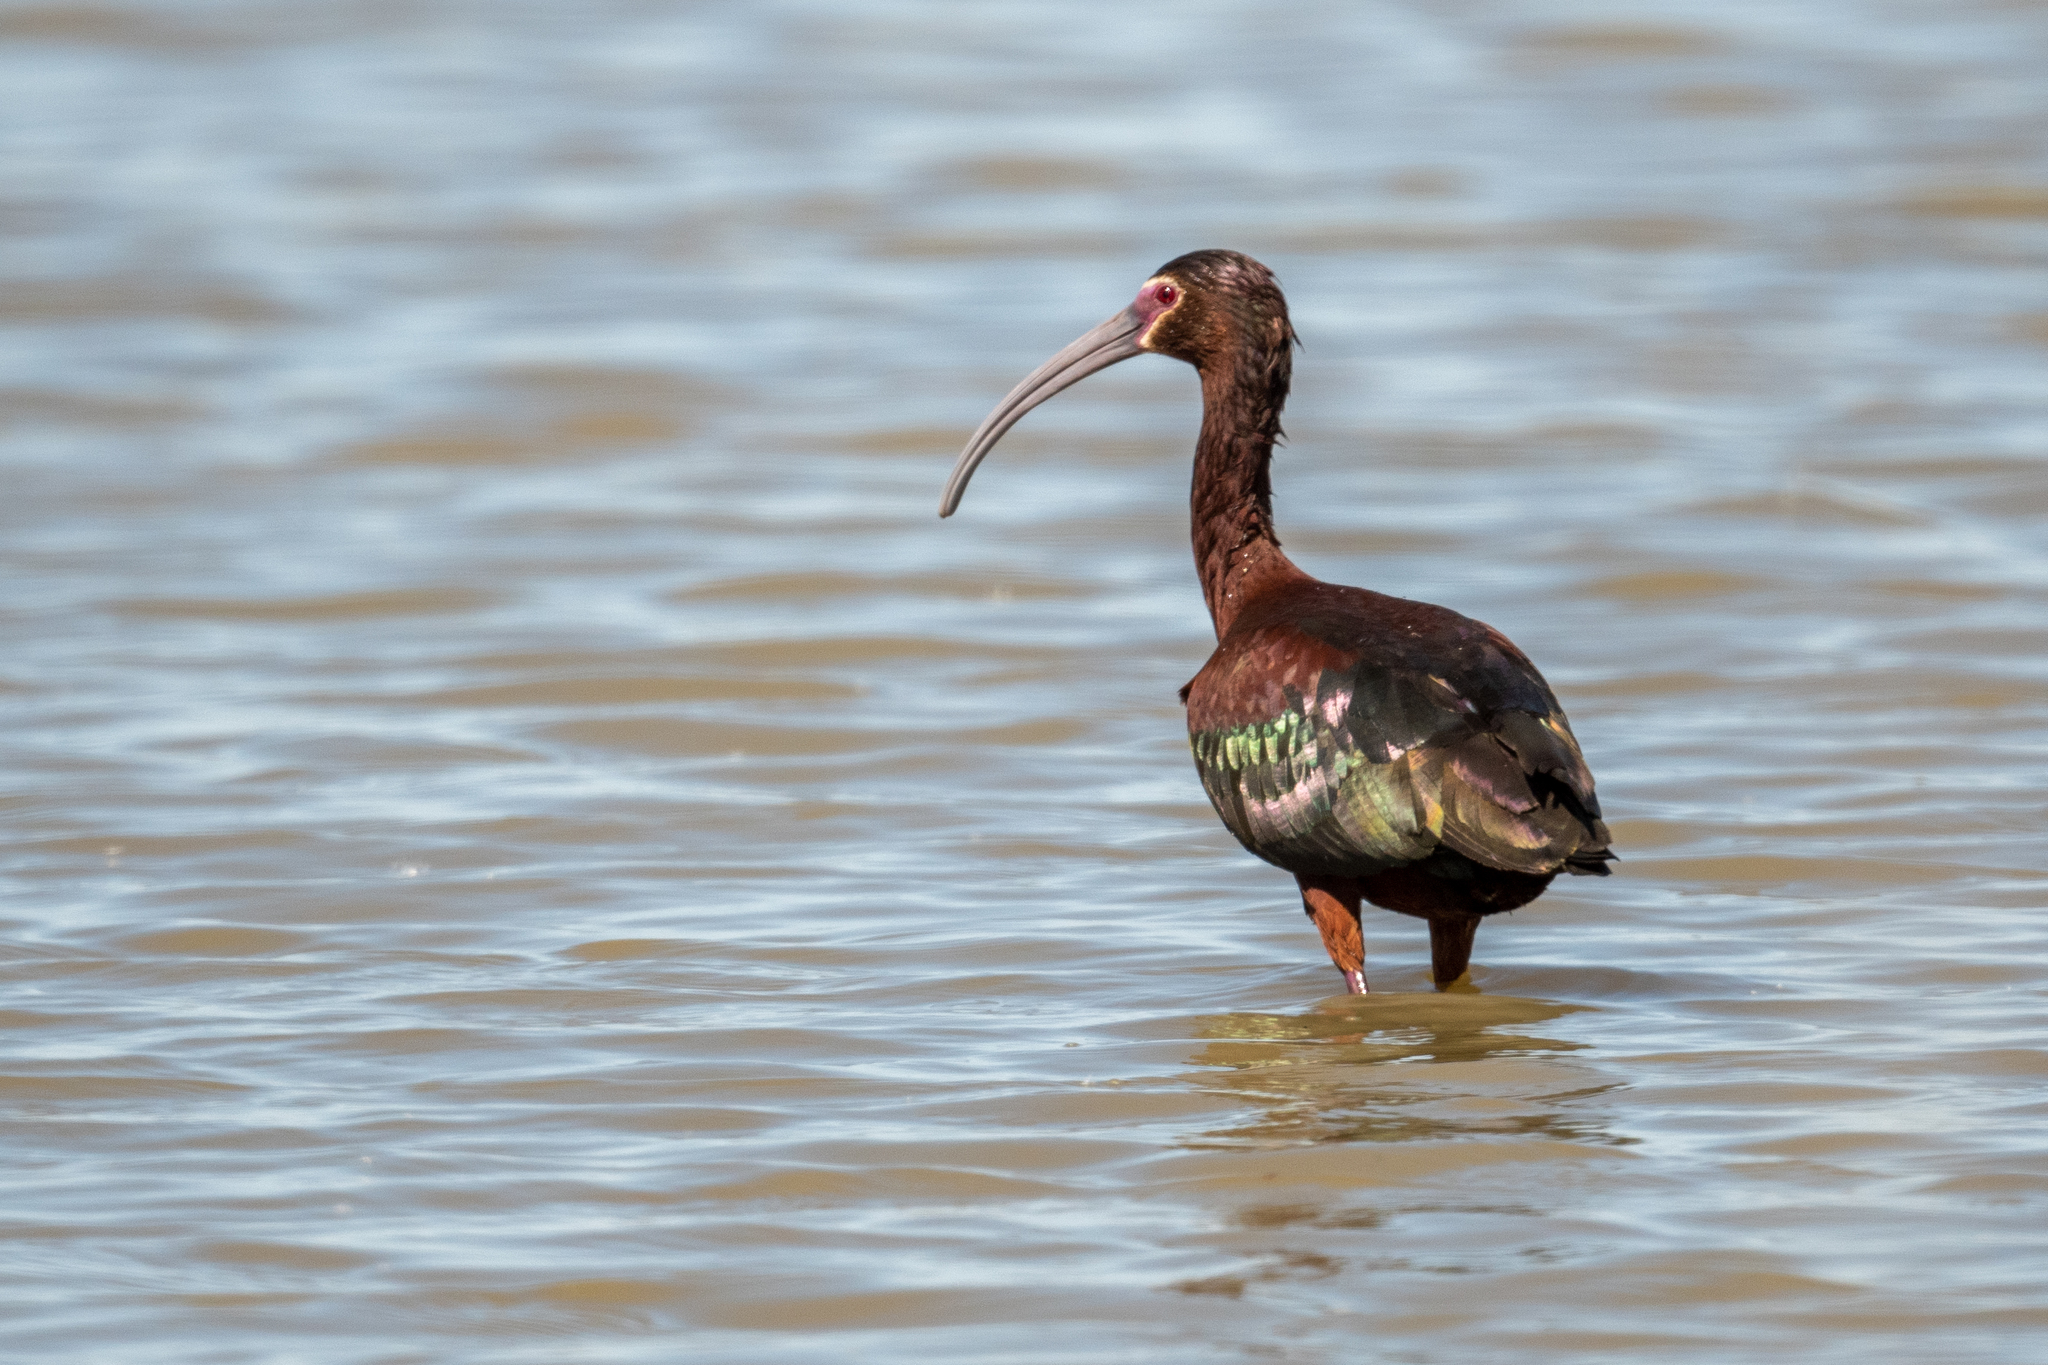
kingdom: Animalia
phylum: Chordata
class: Aves
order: Pelecaniformes
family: Threskiornithidae
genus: Plegadis
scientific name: Plegadis chihi
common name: White-faced ibis
